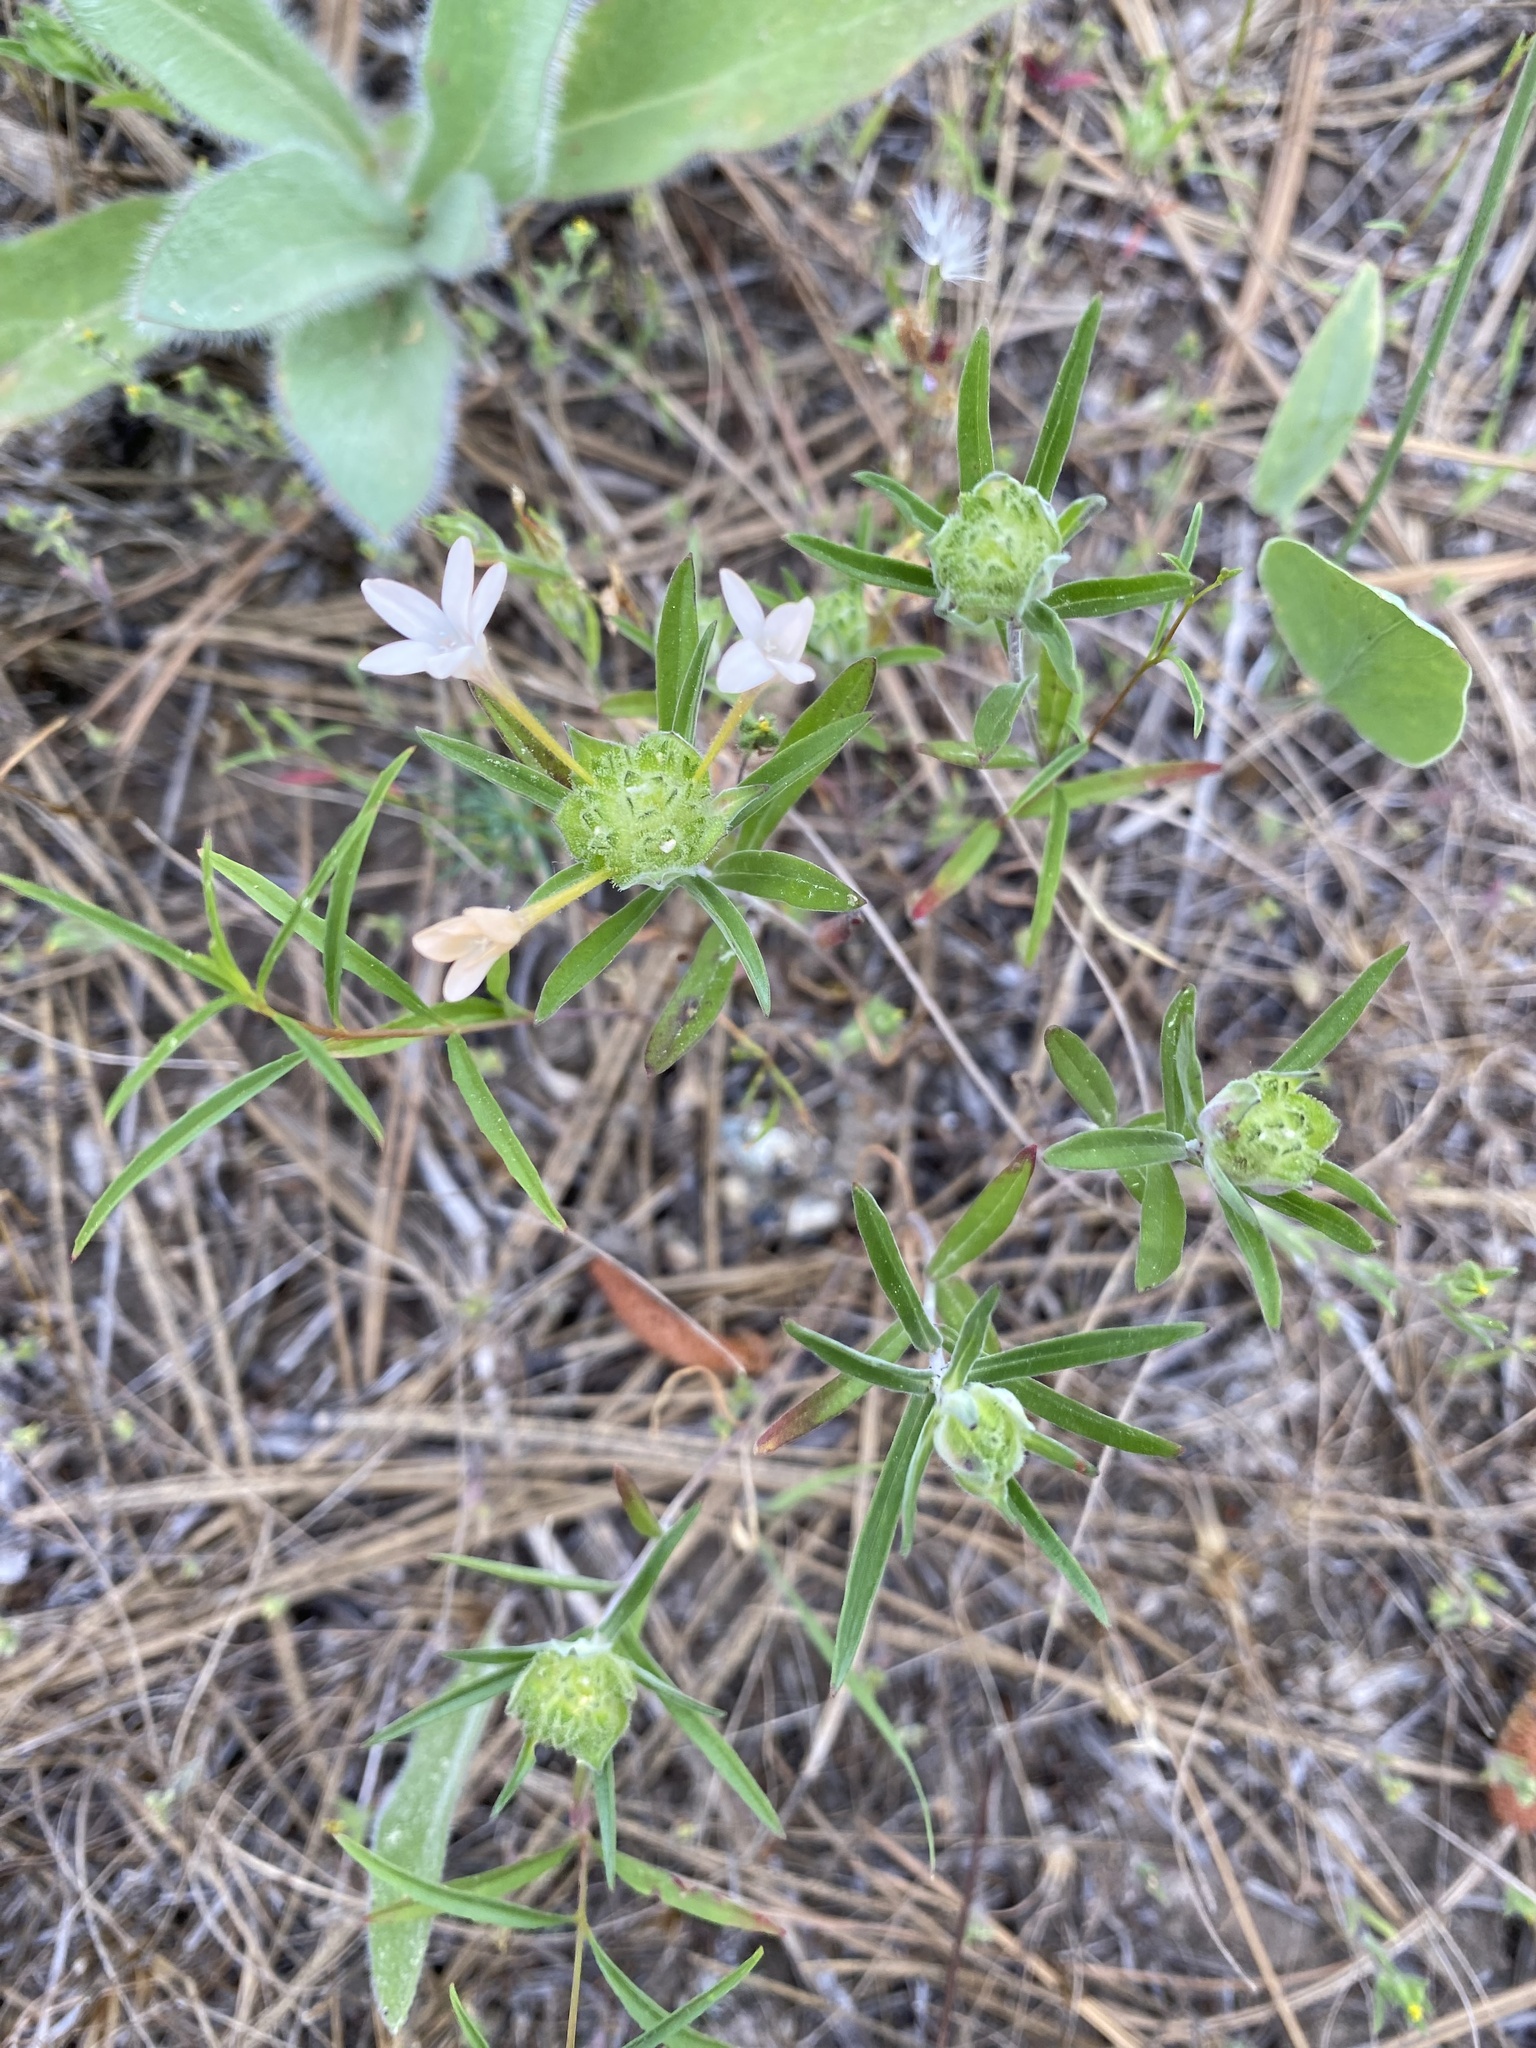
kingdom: Plantae
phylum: Tracheophyta
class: Magnoliopsida
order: Ericales
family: Polemoniaceae
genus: Collomia
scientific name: Collomia grandiflora
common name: California strawflower
